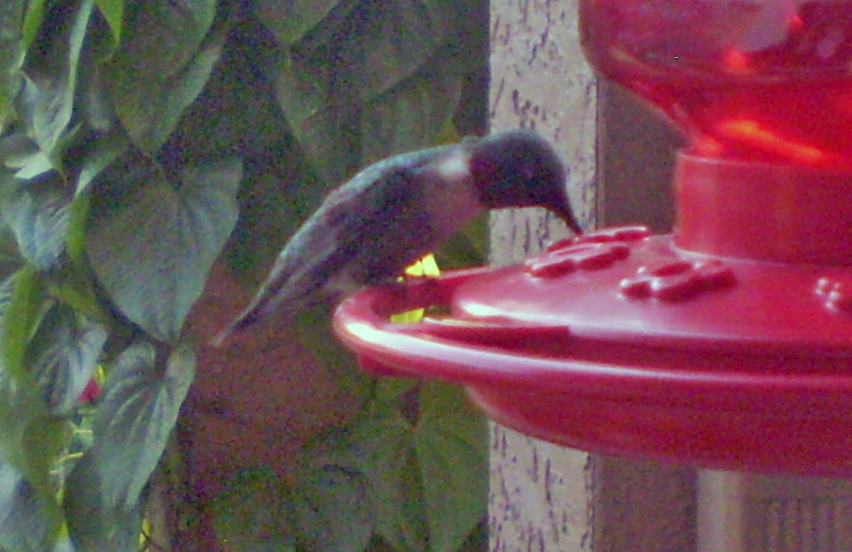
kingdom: Animalia
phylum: Chordata
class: Aves
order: Apodiformes
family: Trochilidae
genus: Archilochus
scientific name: Archilochus colubris
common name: Ruby-throated hummingbird
